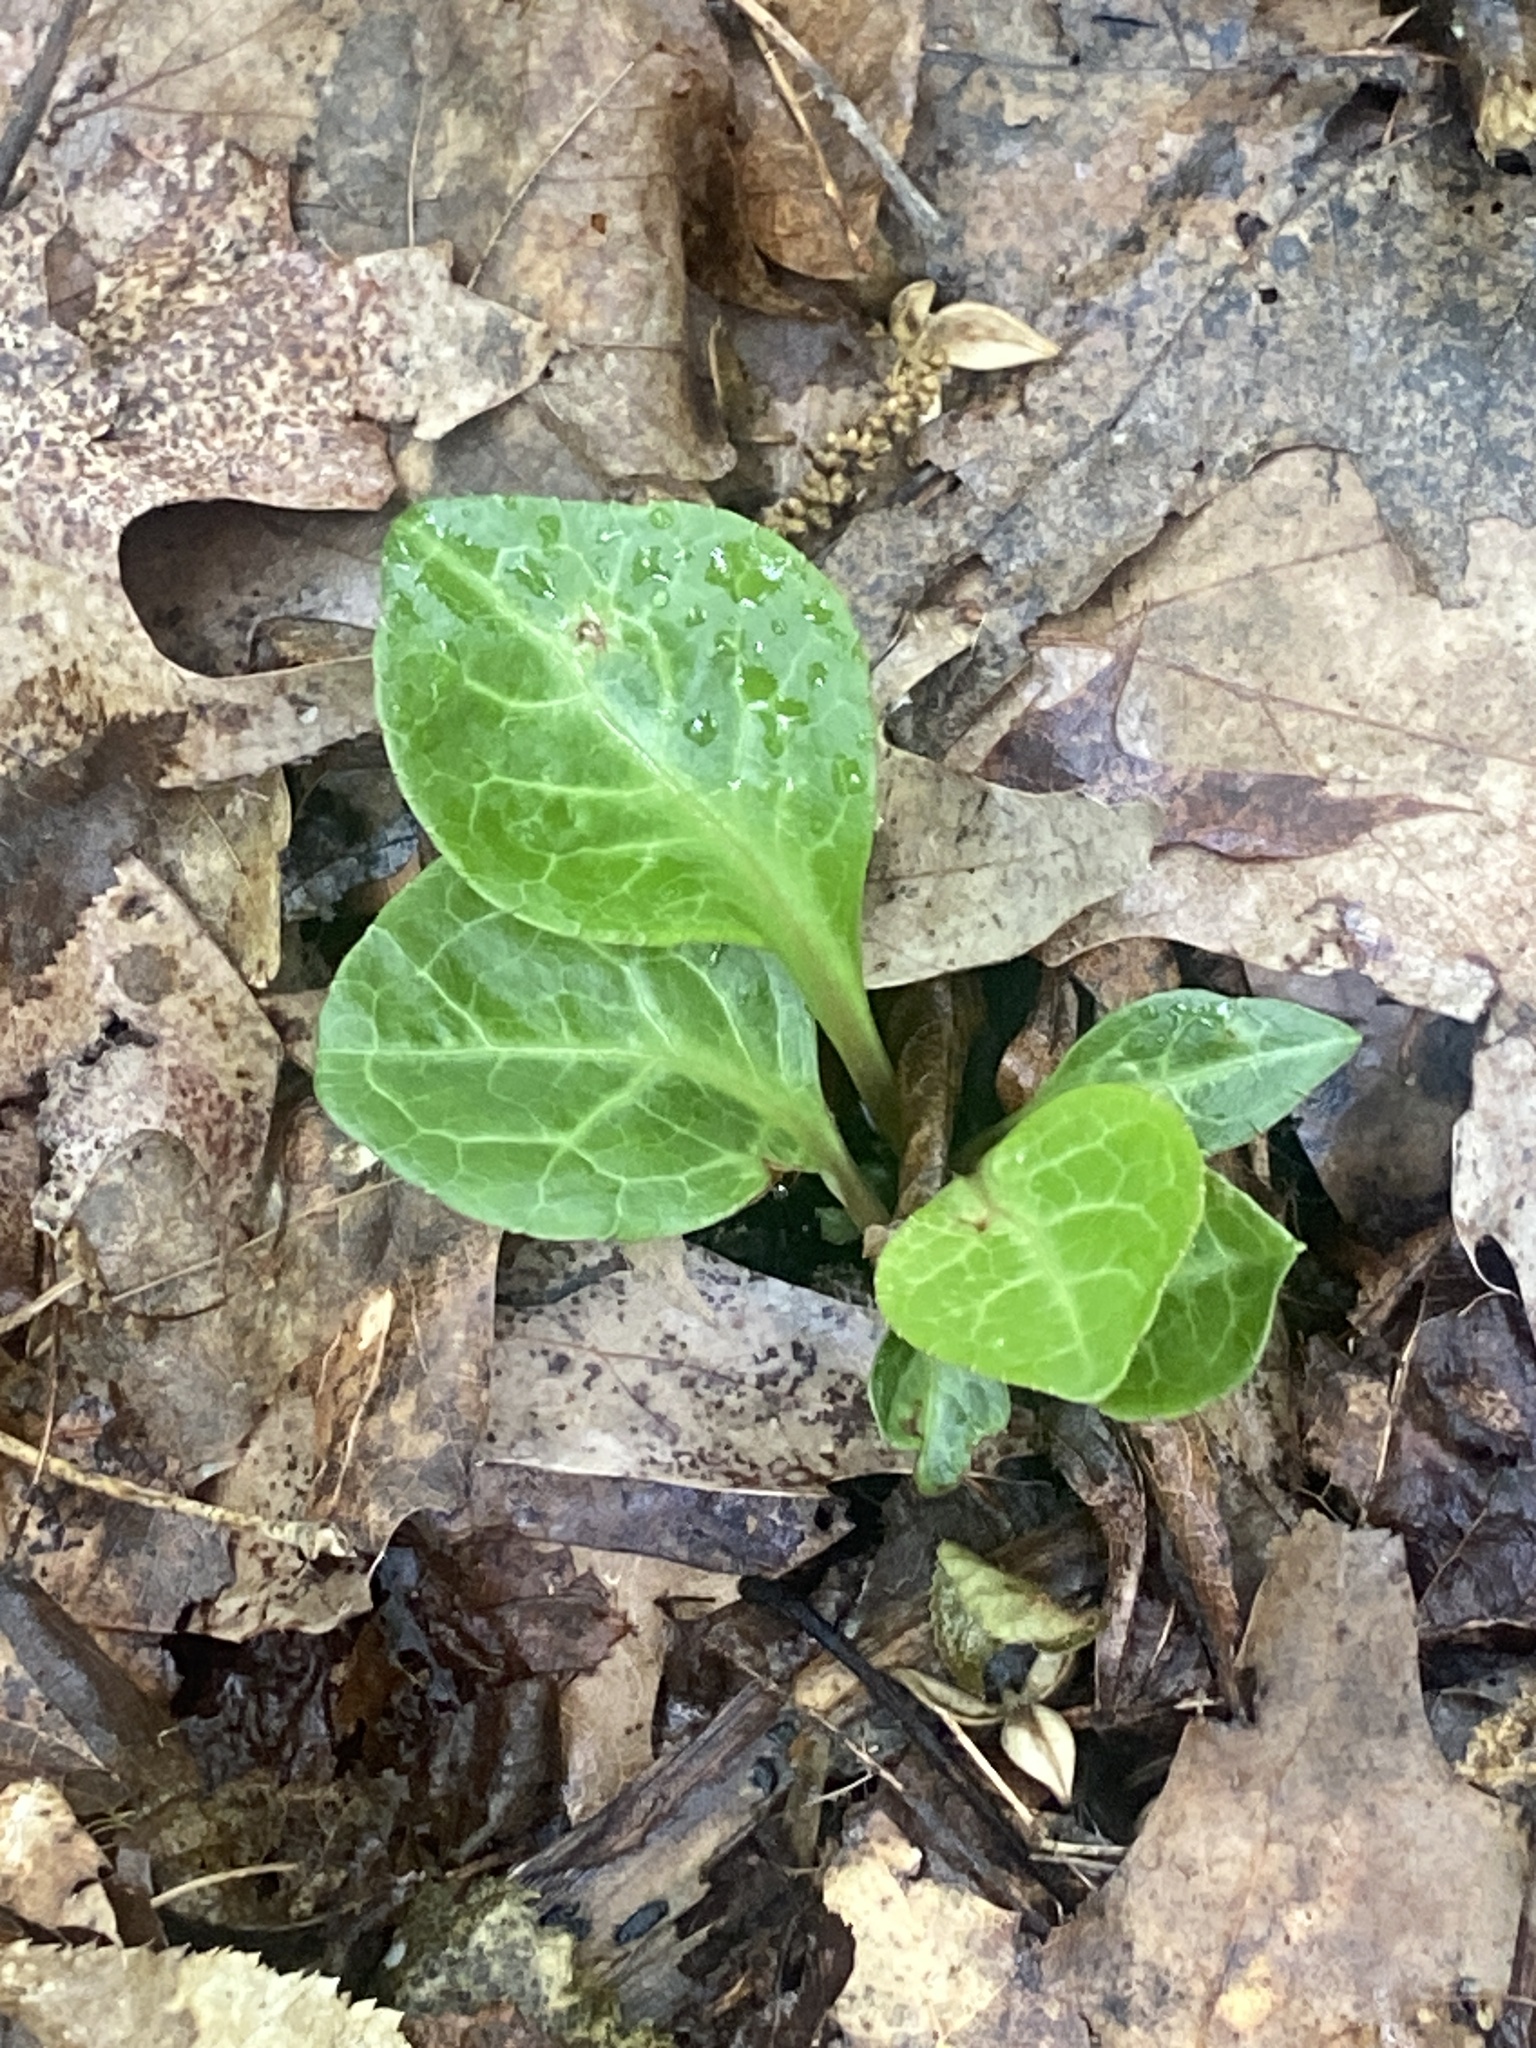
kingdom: Plantae
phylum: Tracheophyta
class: Magnoliopsida
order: Ericales
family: Ericaceae
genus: Pyrola
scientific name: Pyrola americana
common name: American wintergreen
